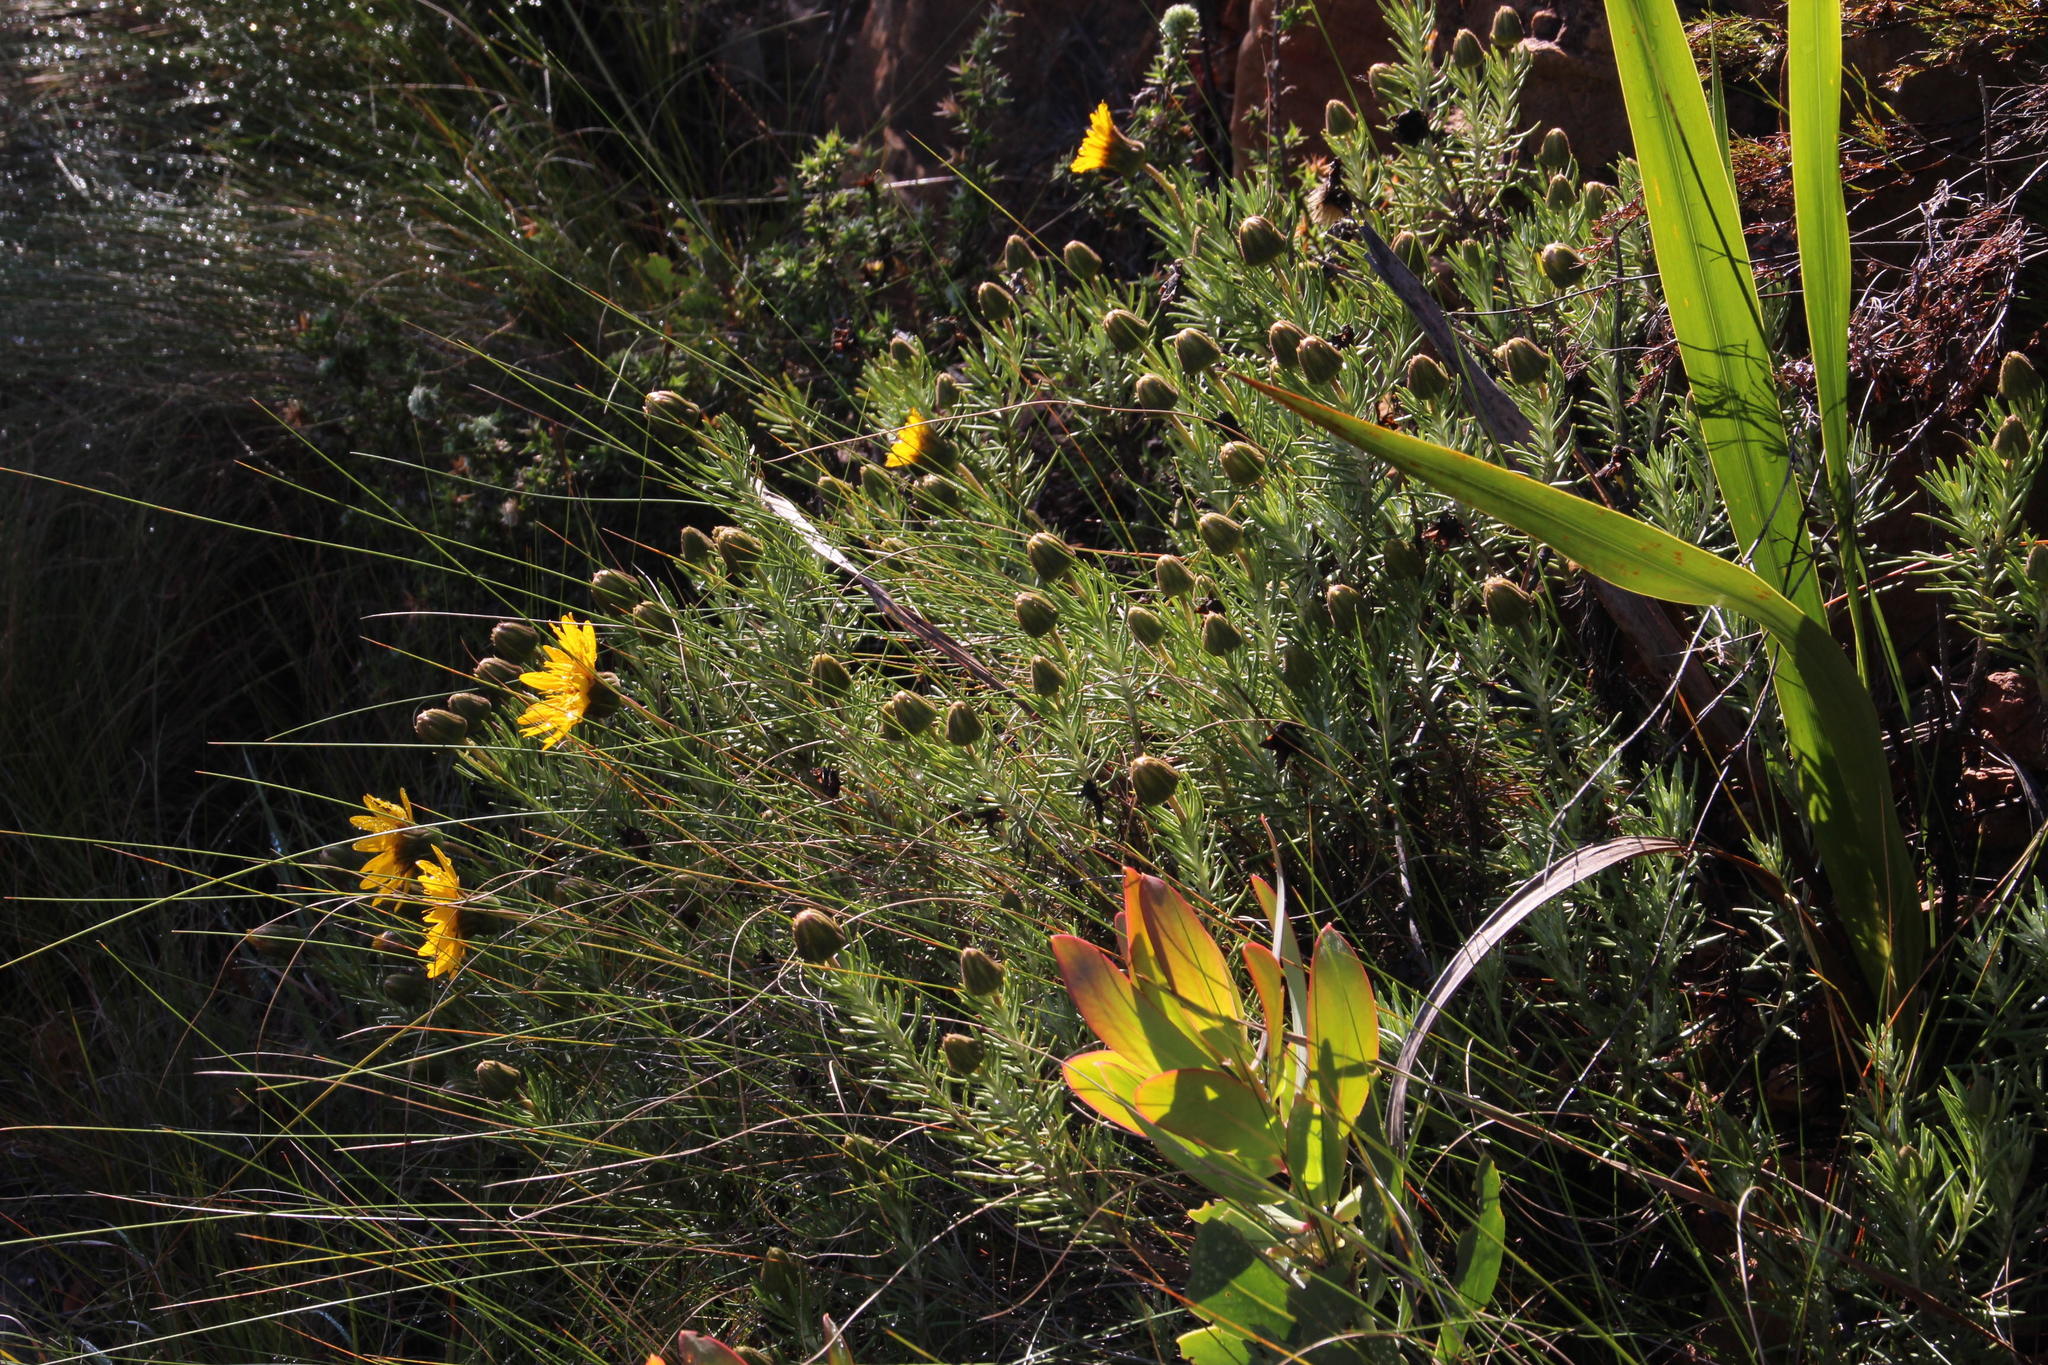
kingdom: Plantae
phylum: Tracheophyta
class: Magnoliopsida
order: Asterales
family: Asteraceae
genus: Euryops
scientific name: Euryops abrotanifolius
